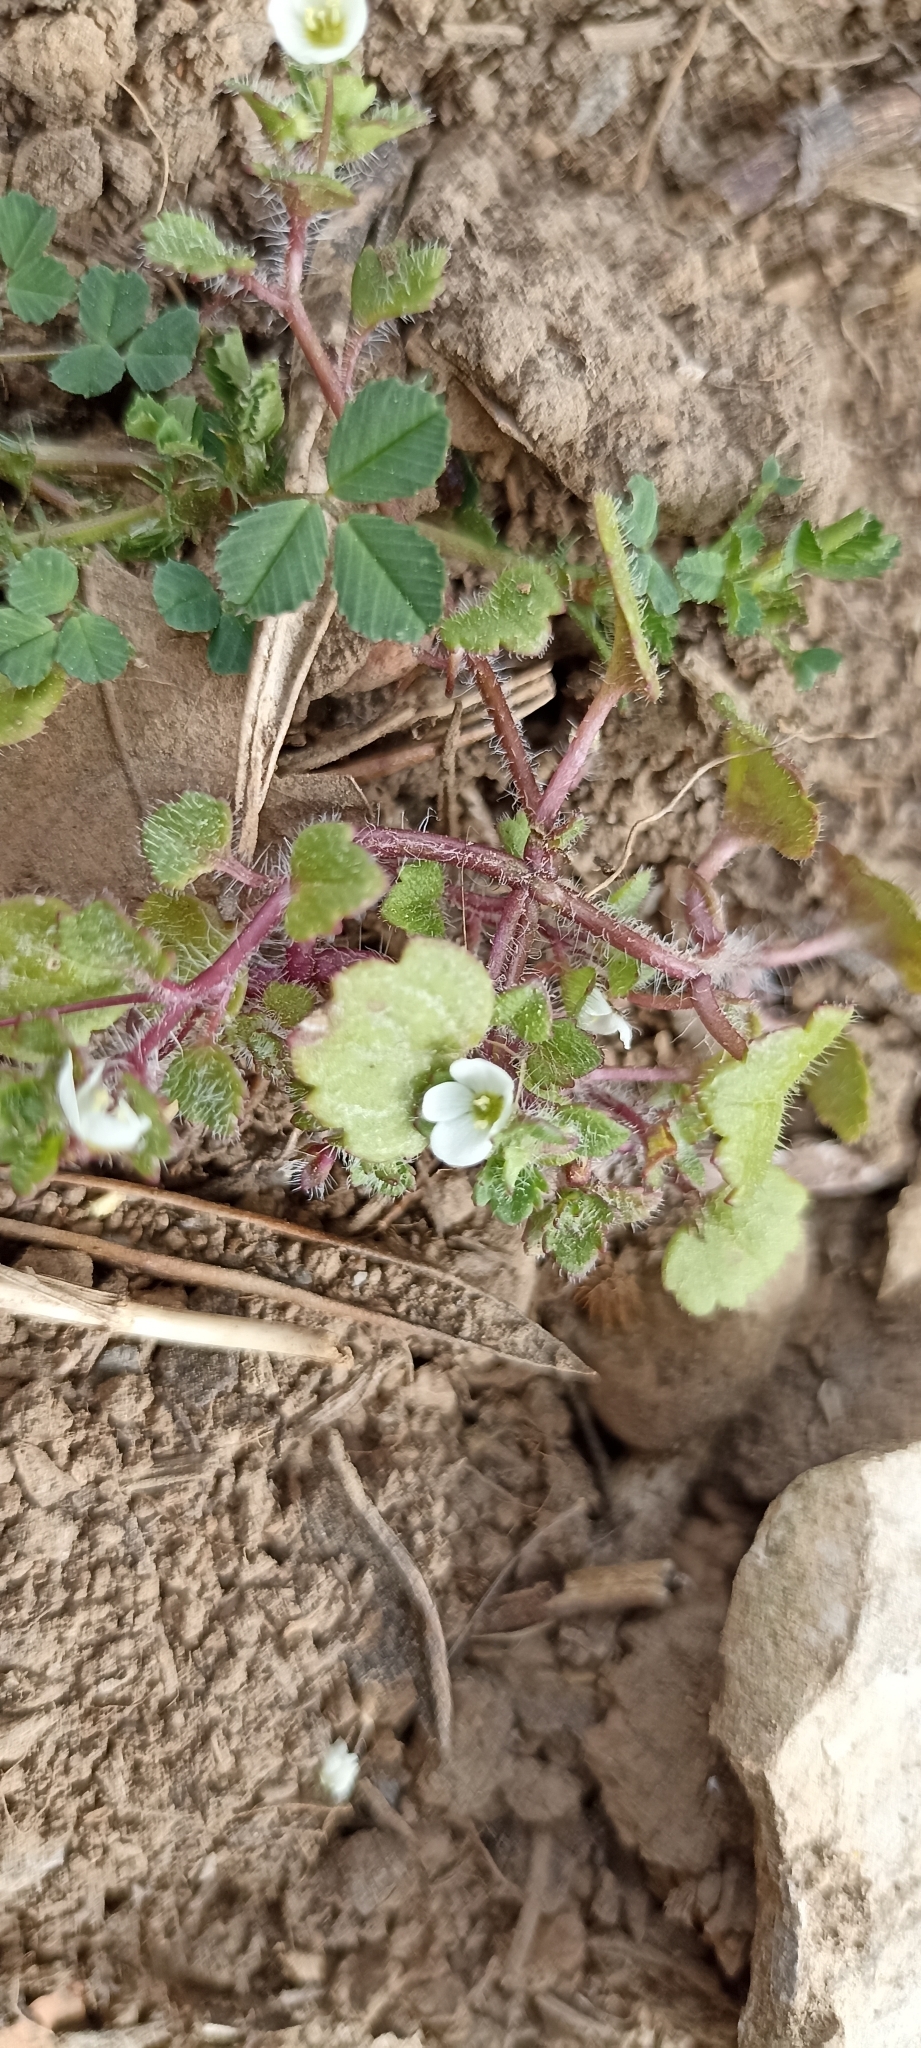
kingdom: Plantae
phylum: Tracheophyta
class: Magnoliopsida
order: Lamiales
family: Plantaginaceae
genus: Veronica
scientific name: Veronica cymbalaria
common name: Pale speedwell
